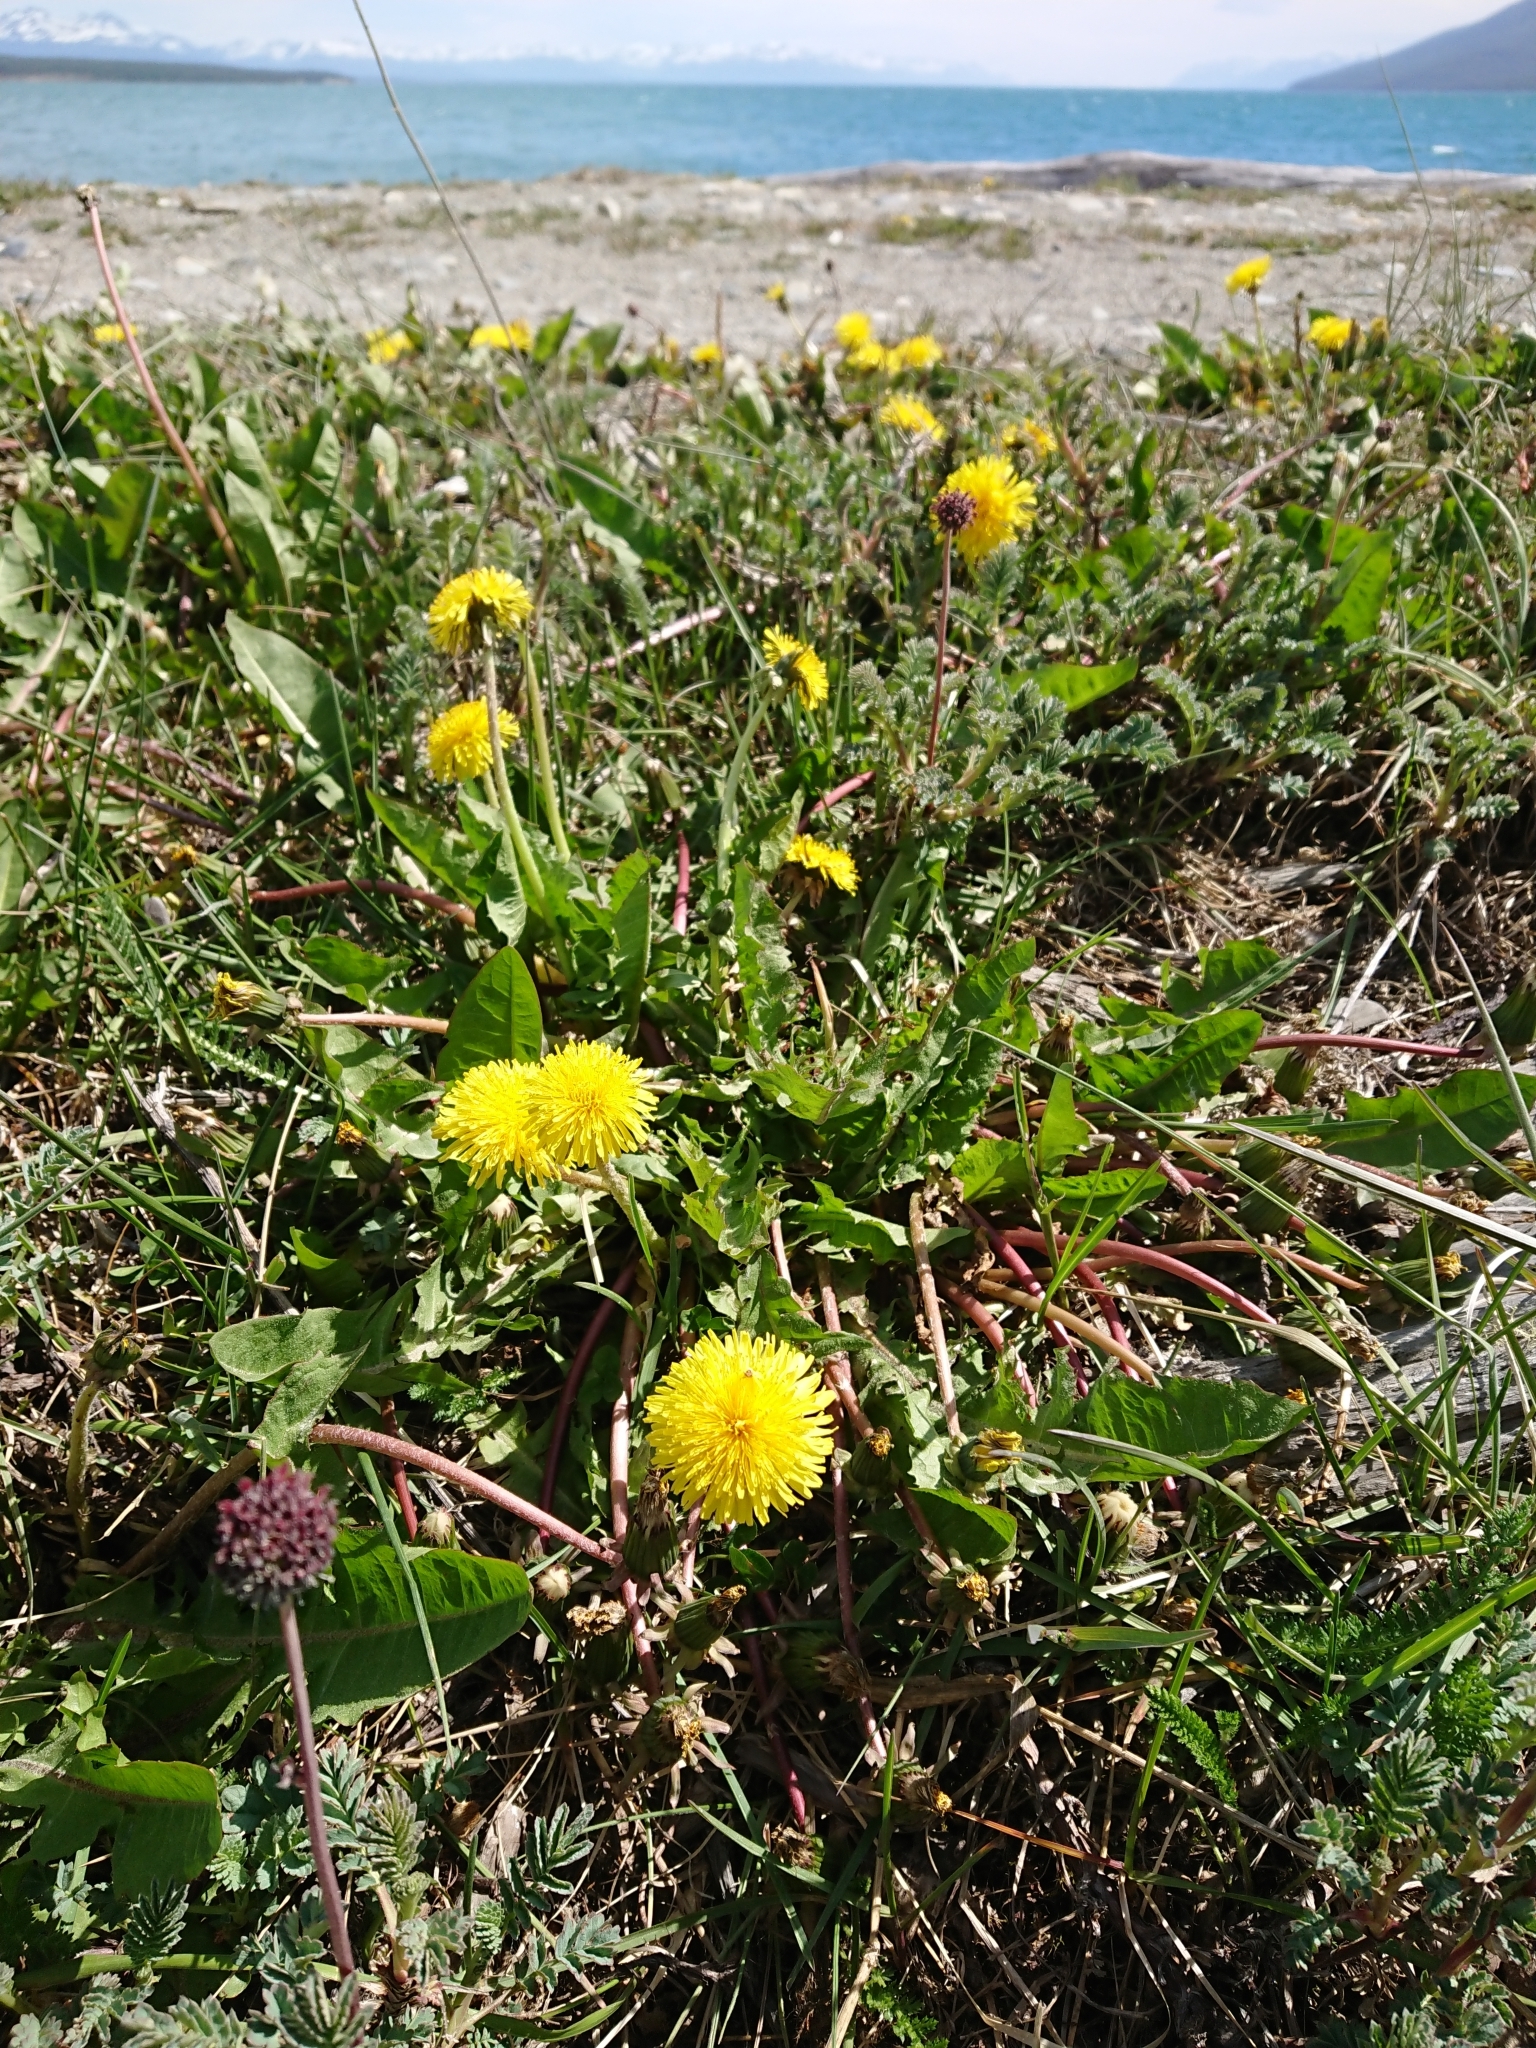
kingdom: Plantae
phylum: Tracheophyta
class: Magnoliopsida
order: Asterales
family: Asteraceae
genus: Taraxacum
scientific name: Taraxacum officinale
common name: Common dandelion
